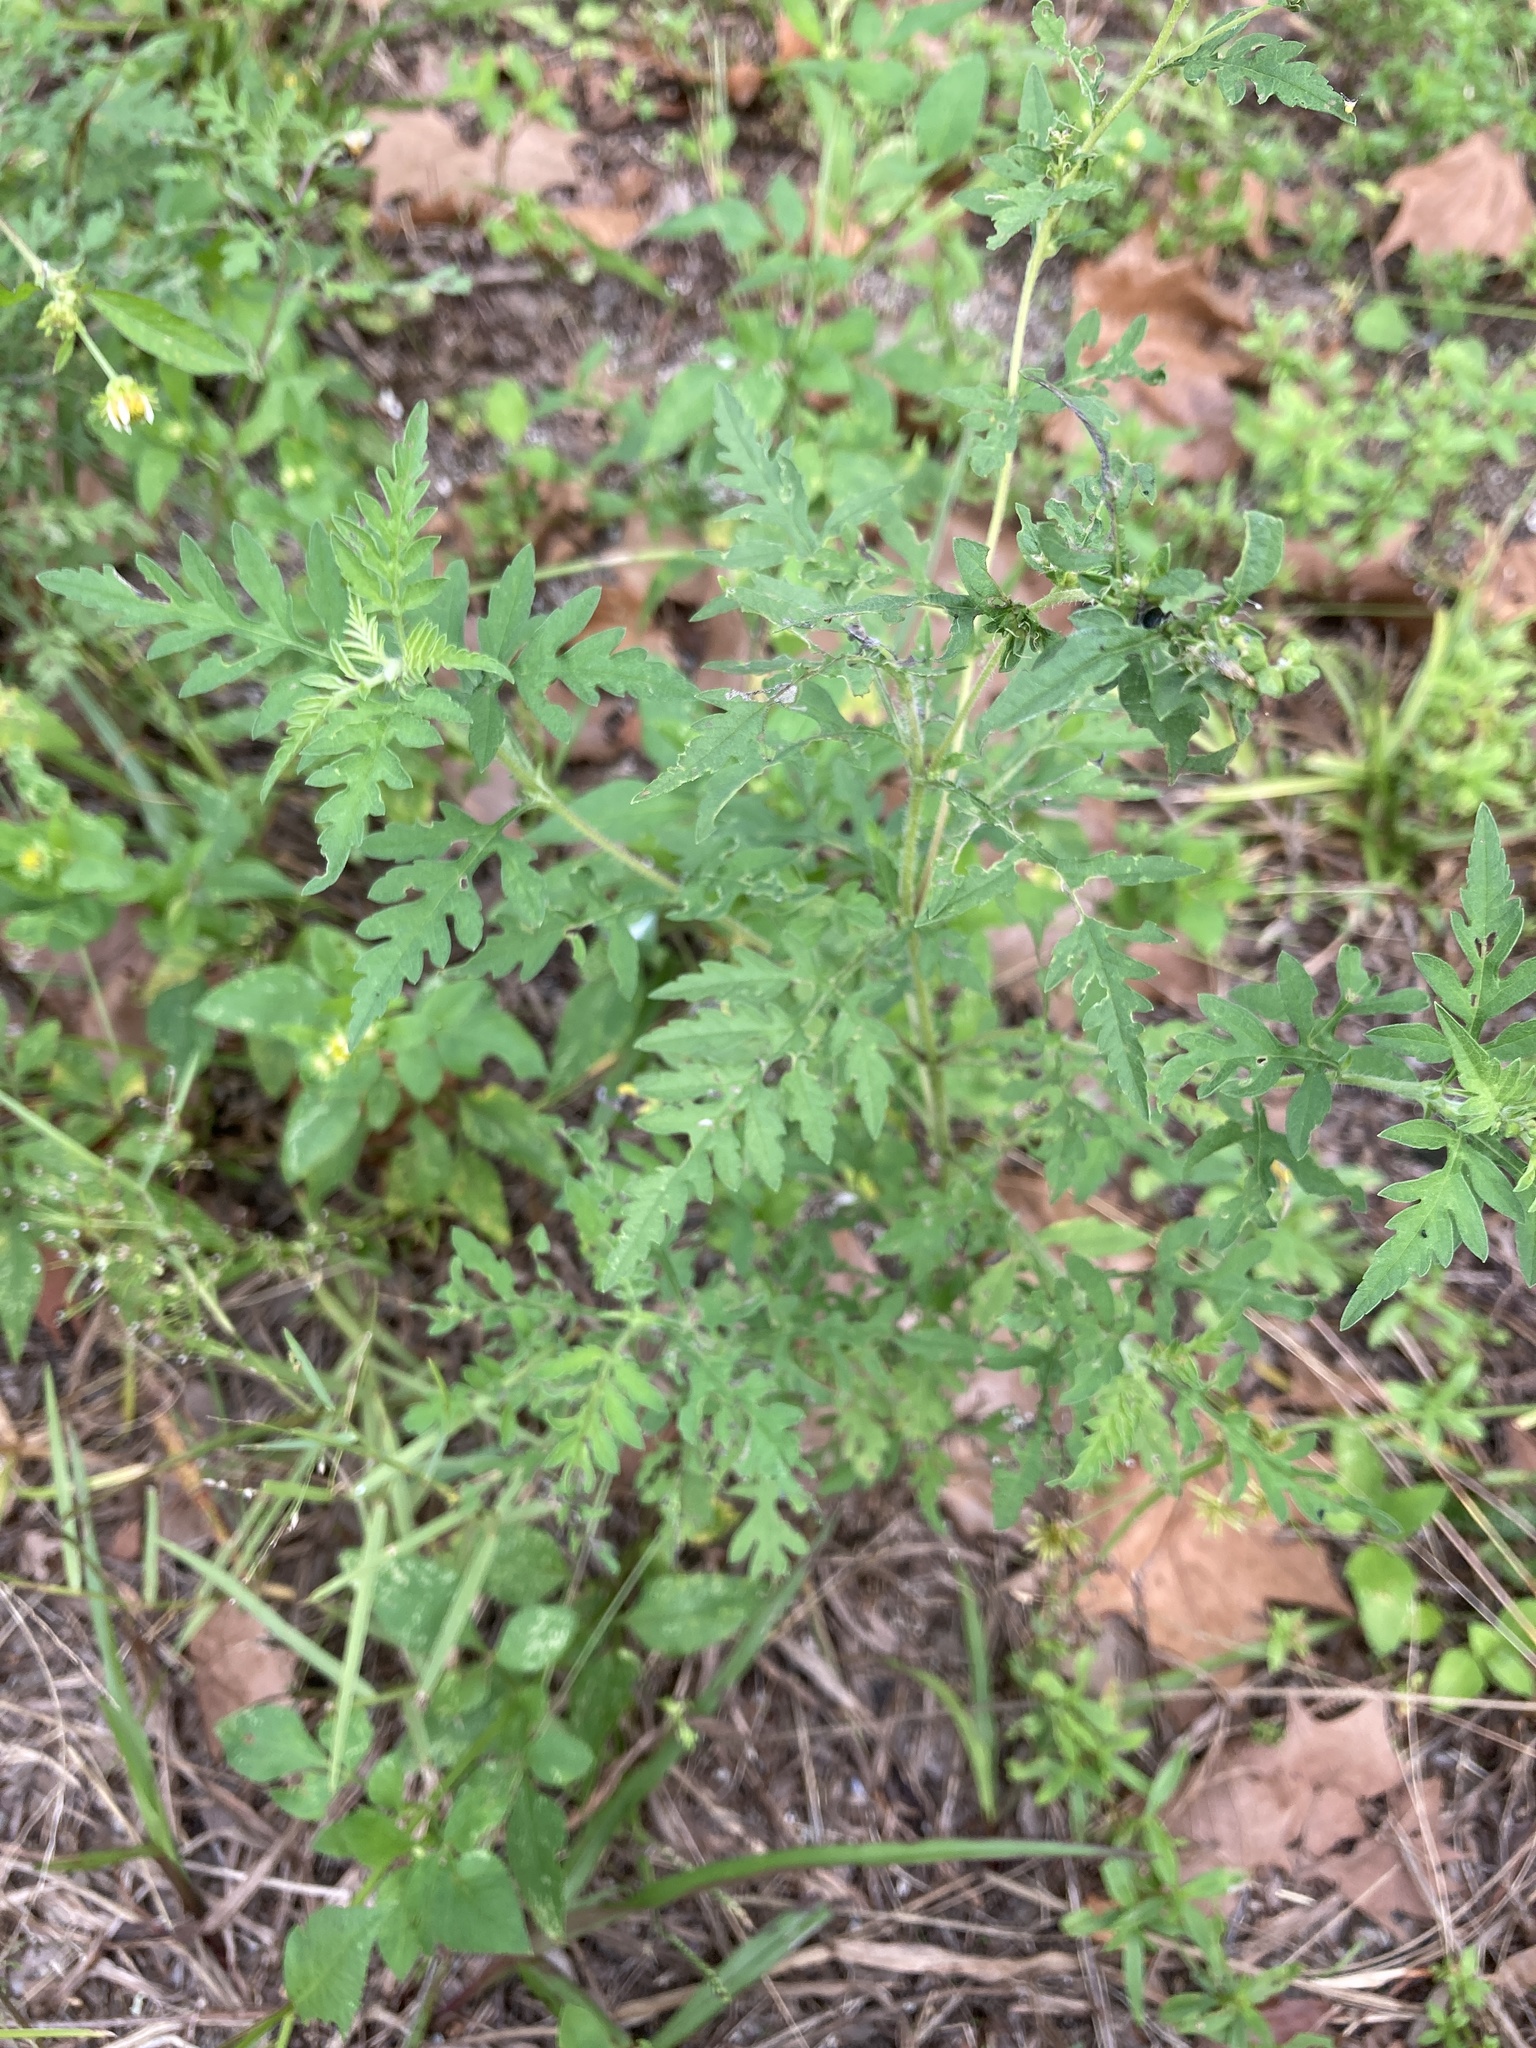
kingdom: Plantae
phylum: Tracheophyta
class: Magnoliopsida
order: Asterales
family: Asteraceae
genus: Ambrosia
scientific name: Ambrosia artemisiifolia
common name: Annual ragweed
